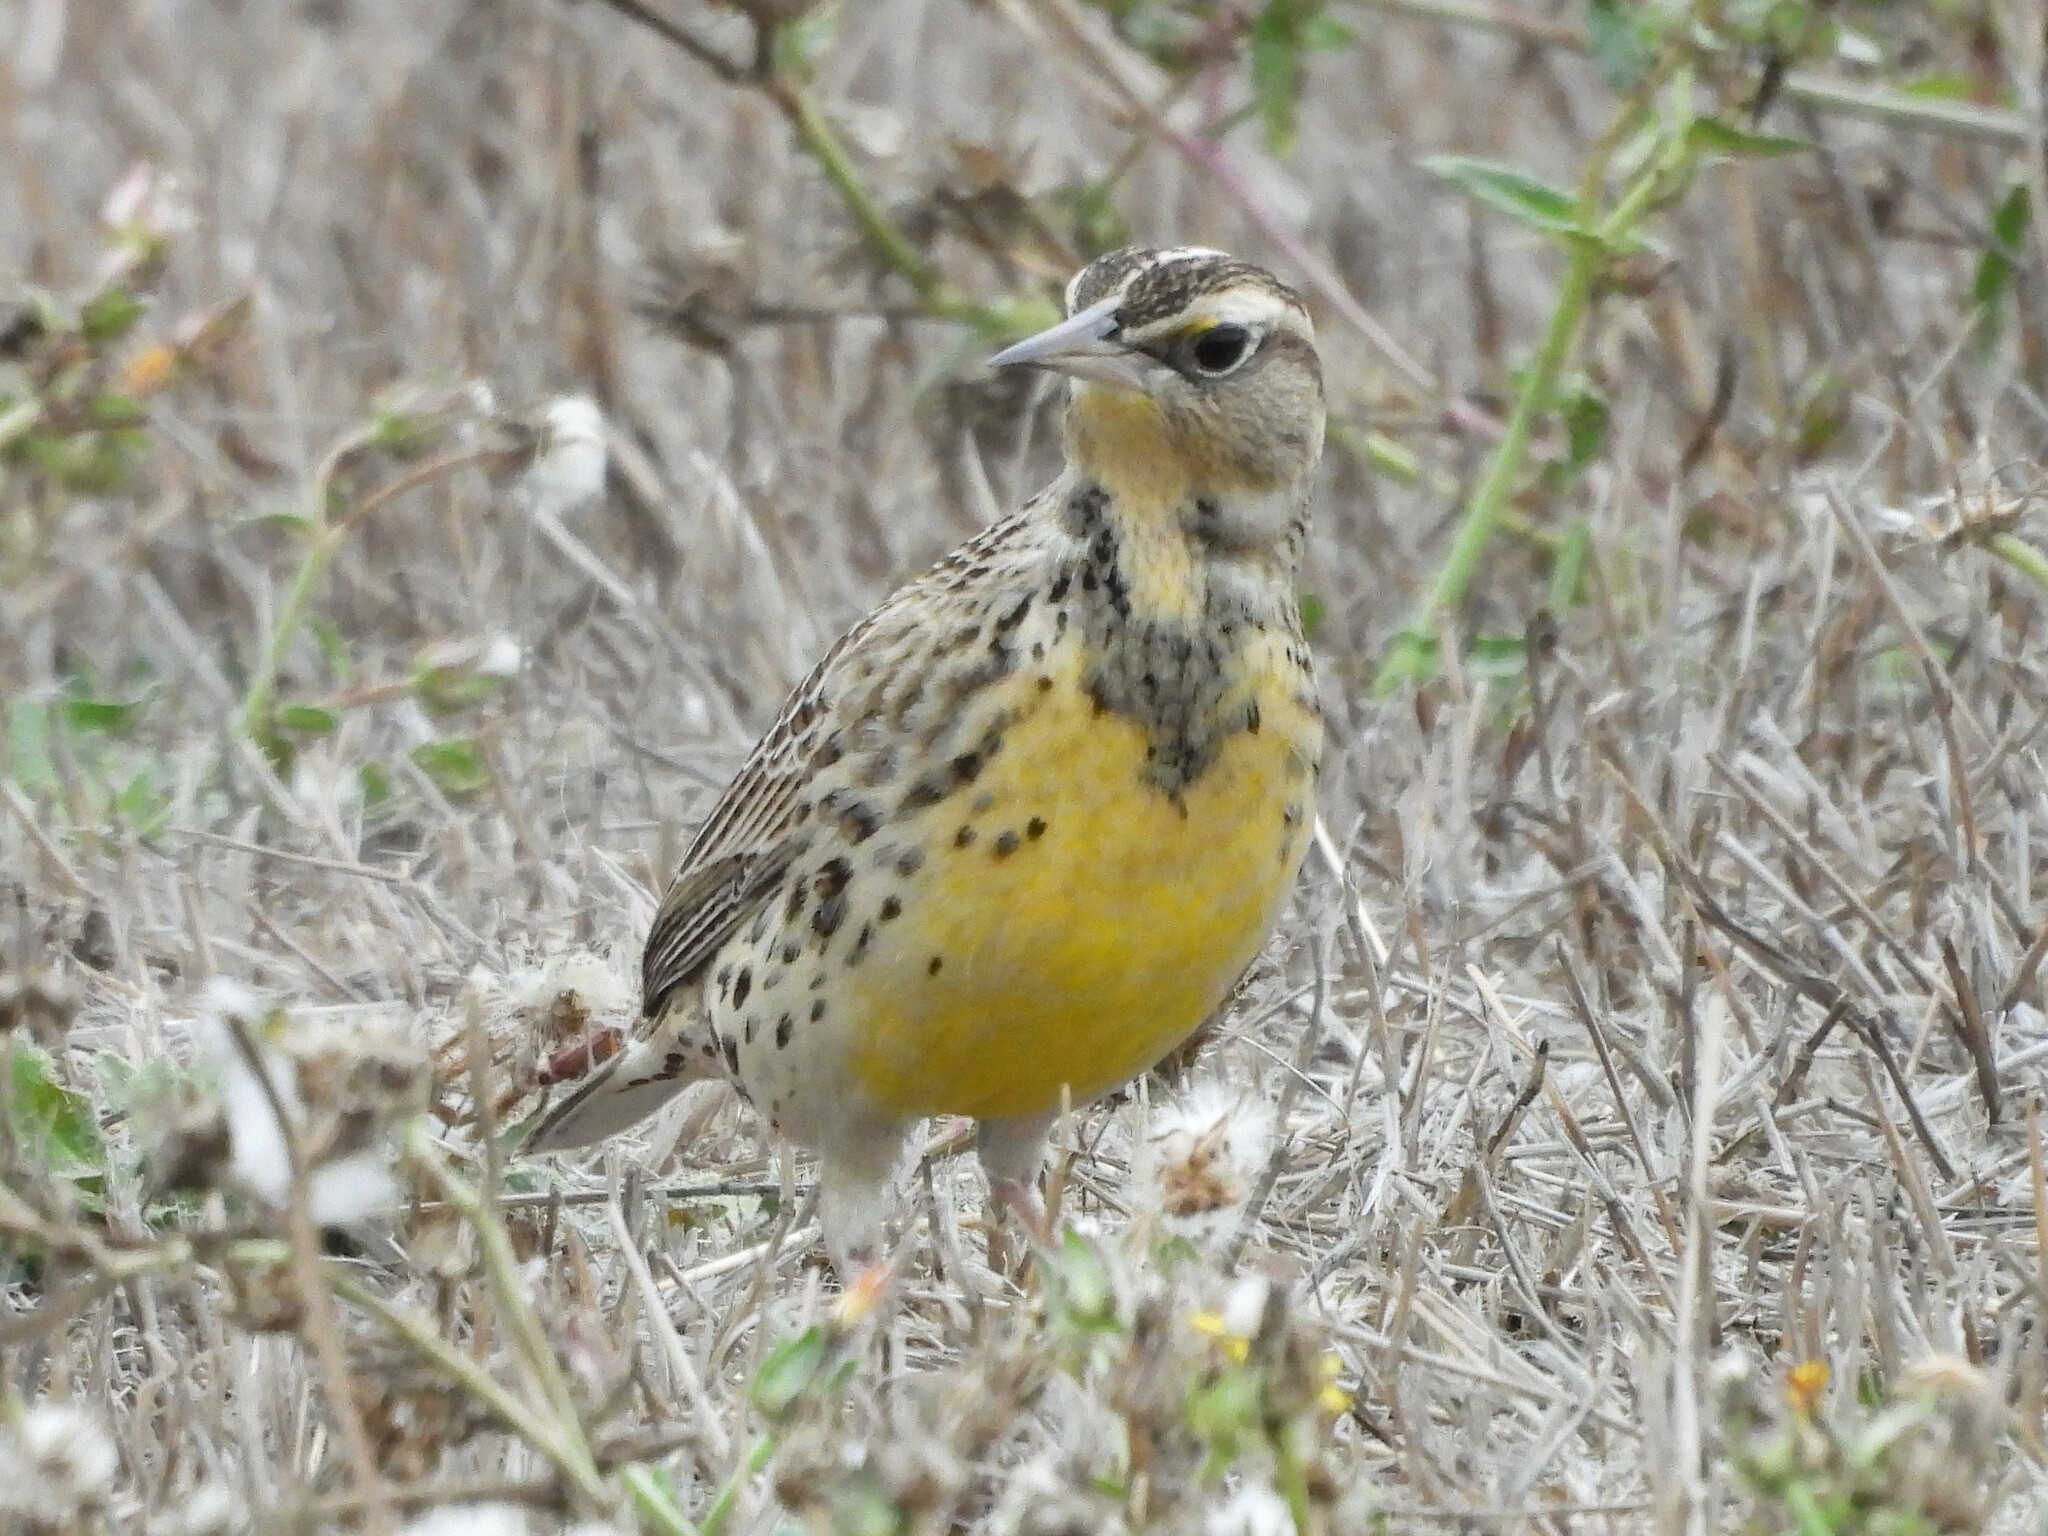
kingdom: Animalia
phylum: Chordata
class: Aves
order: Passeriformes
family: Icteridae
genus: Sturnella
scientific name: Sturnella neglecta
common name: Western meadowlark
